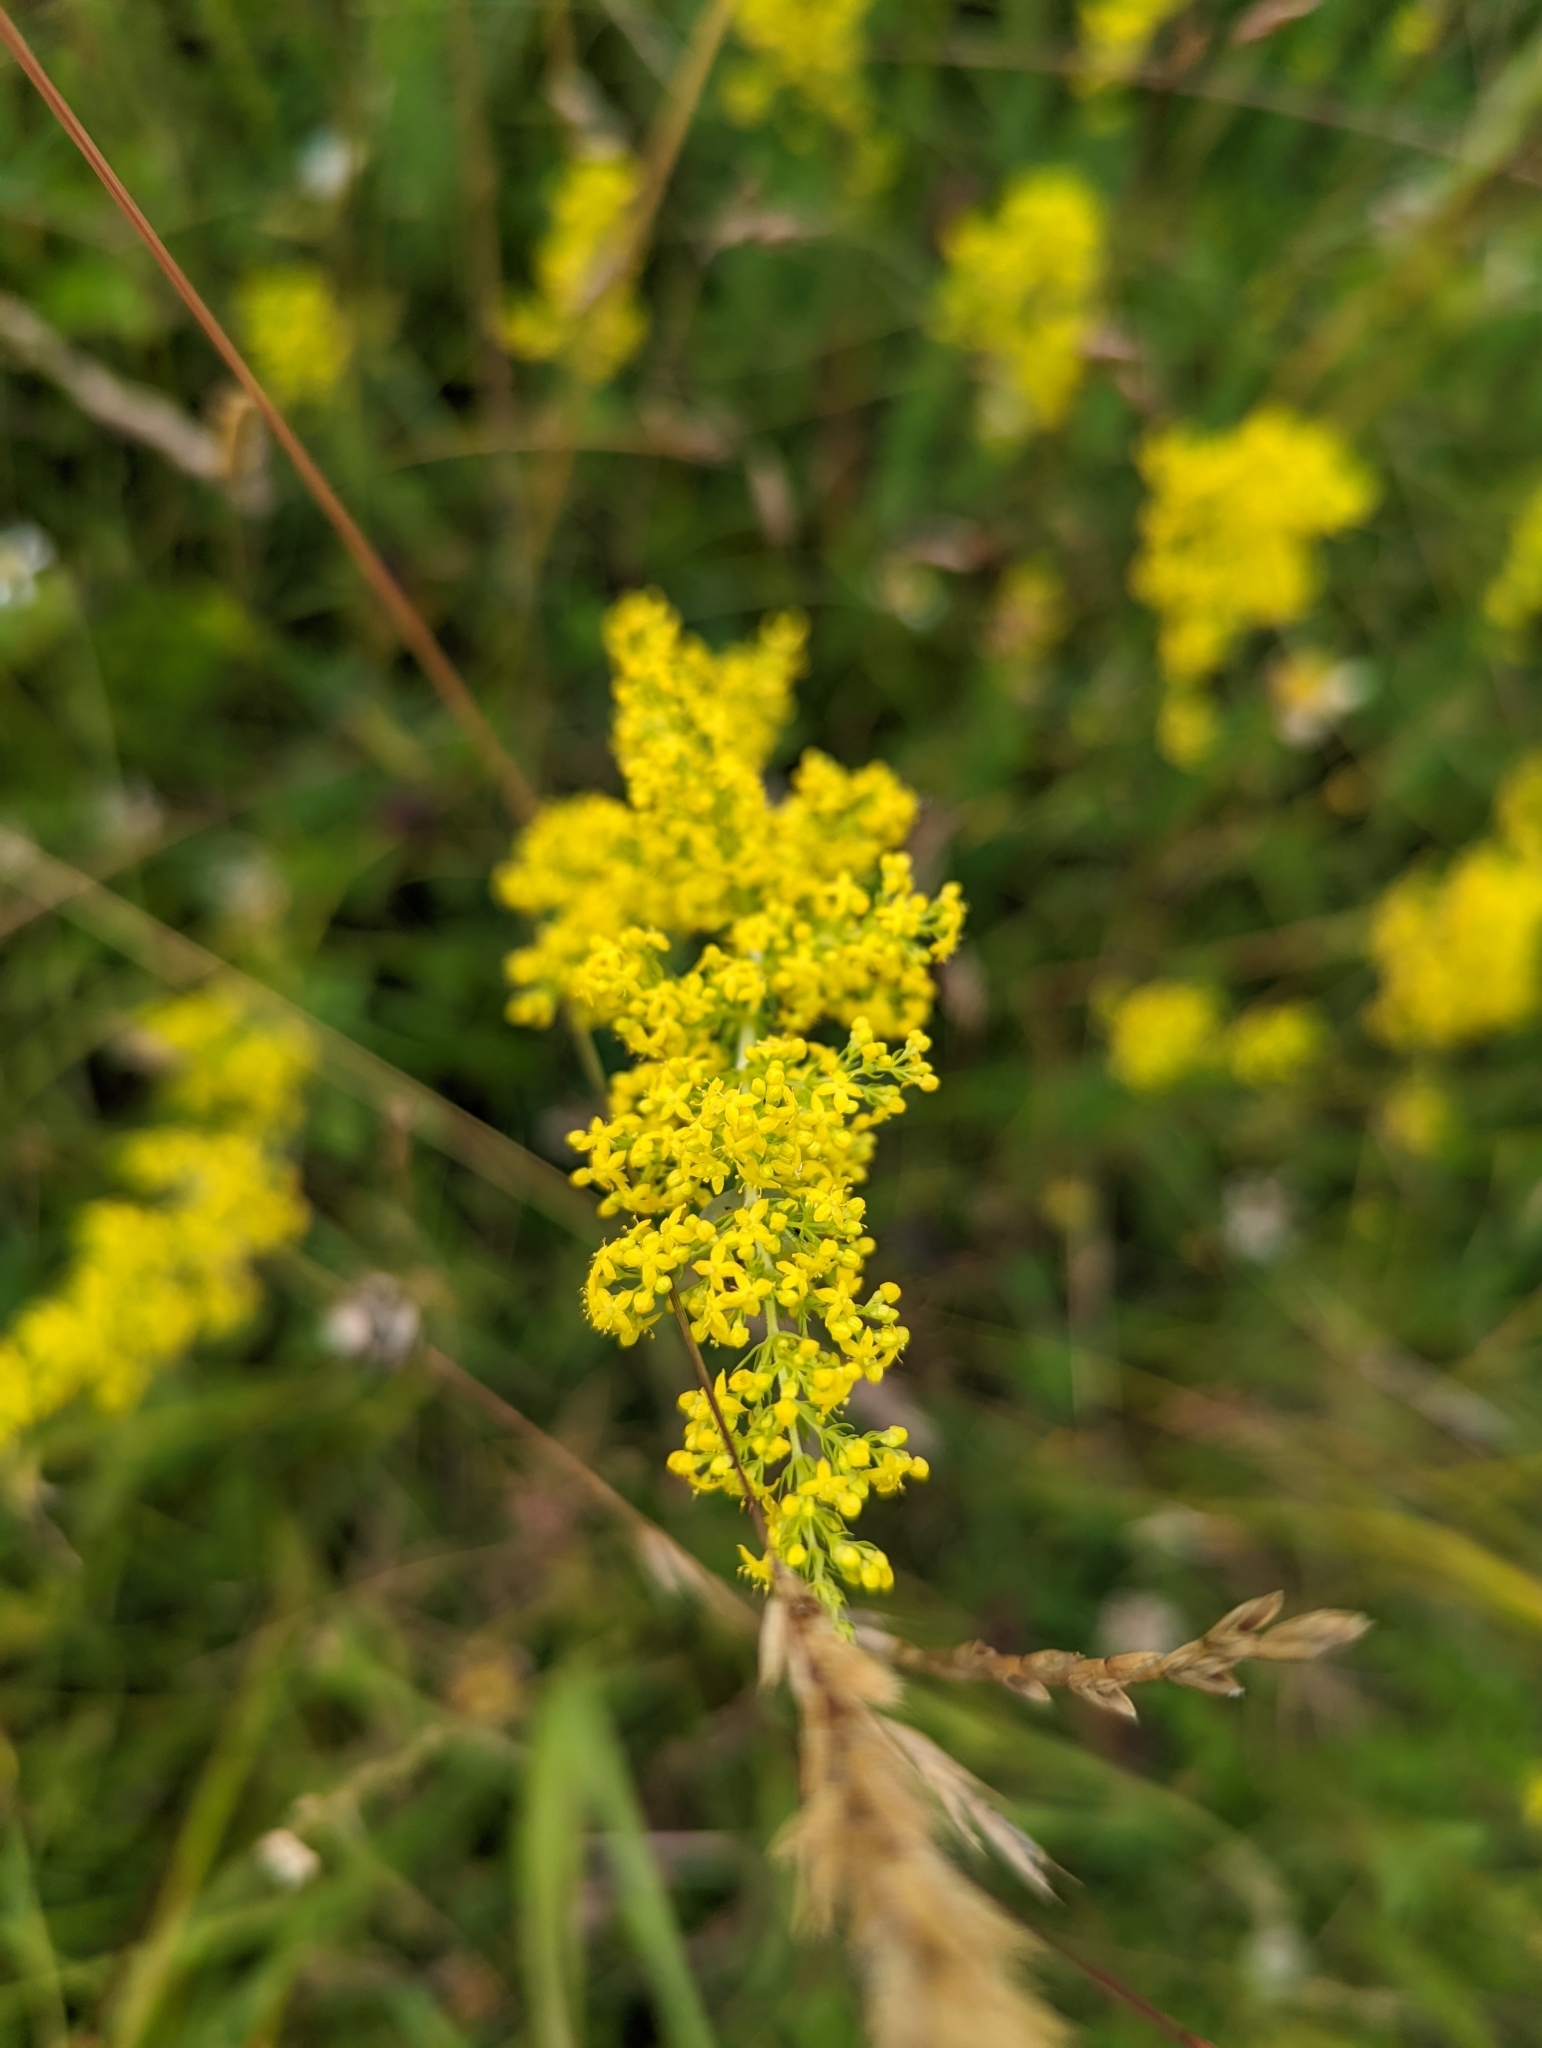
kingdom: Plantae
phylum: Tracheophyta
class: Magnoliopsida
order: Gentianales
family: Rubiaceae
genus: Galium
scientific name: Galium verum
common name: Lady's bedstraw
